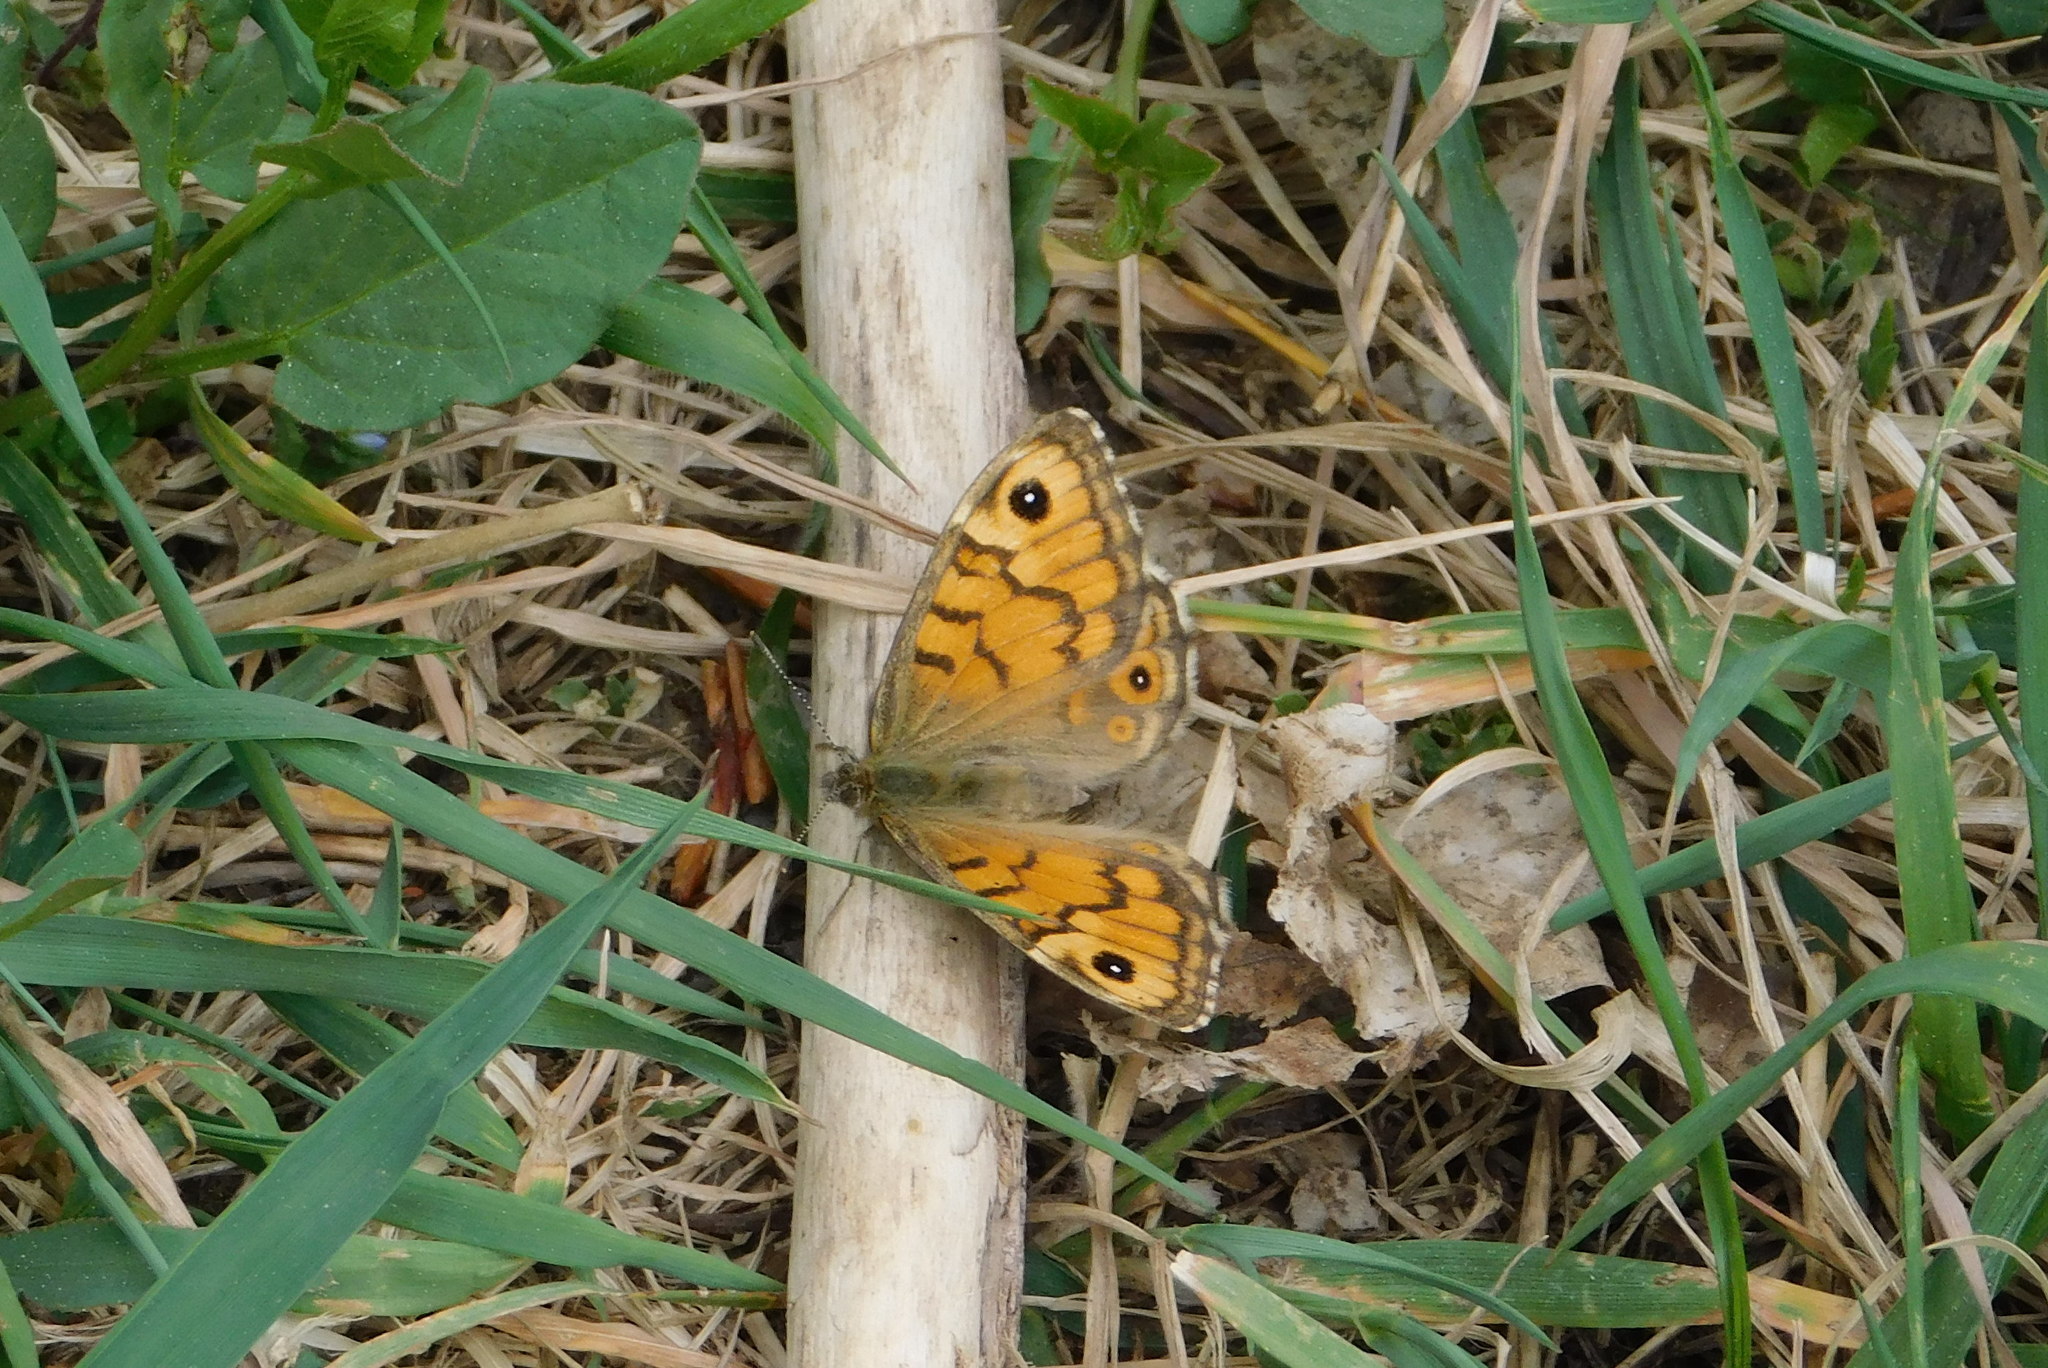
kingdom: Animalia
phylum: Arthropoda
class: Insecta
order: Lepidoptera
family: Nymphalidae
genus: Pararge
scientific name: Pararge Lasiommata megera
